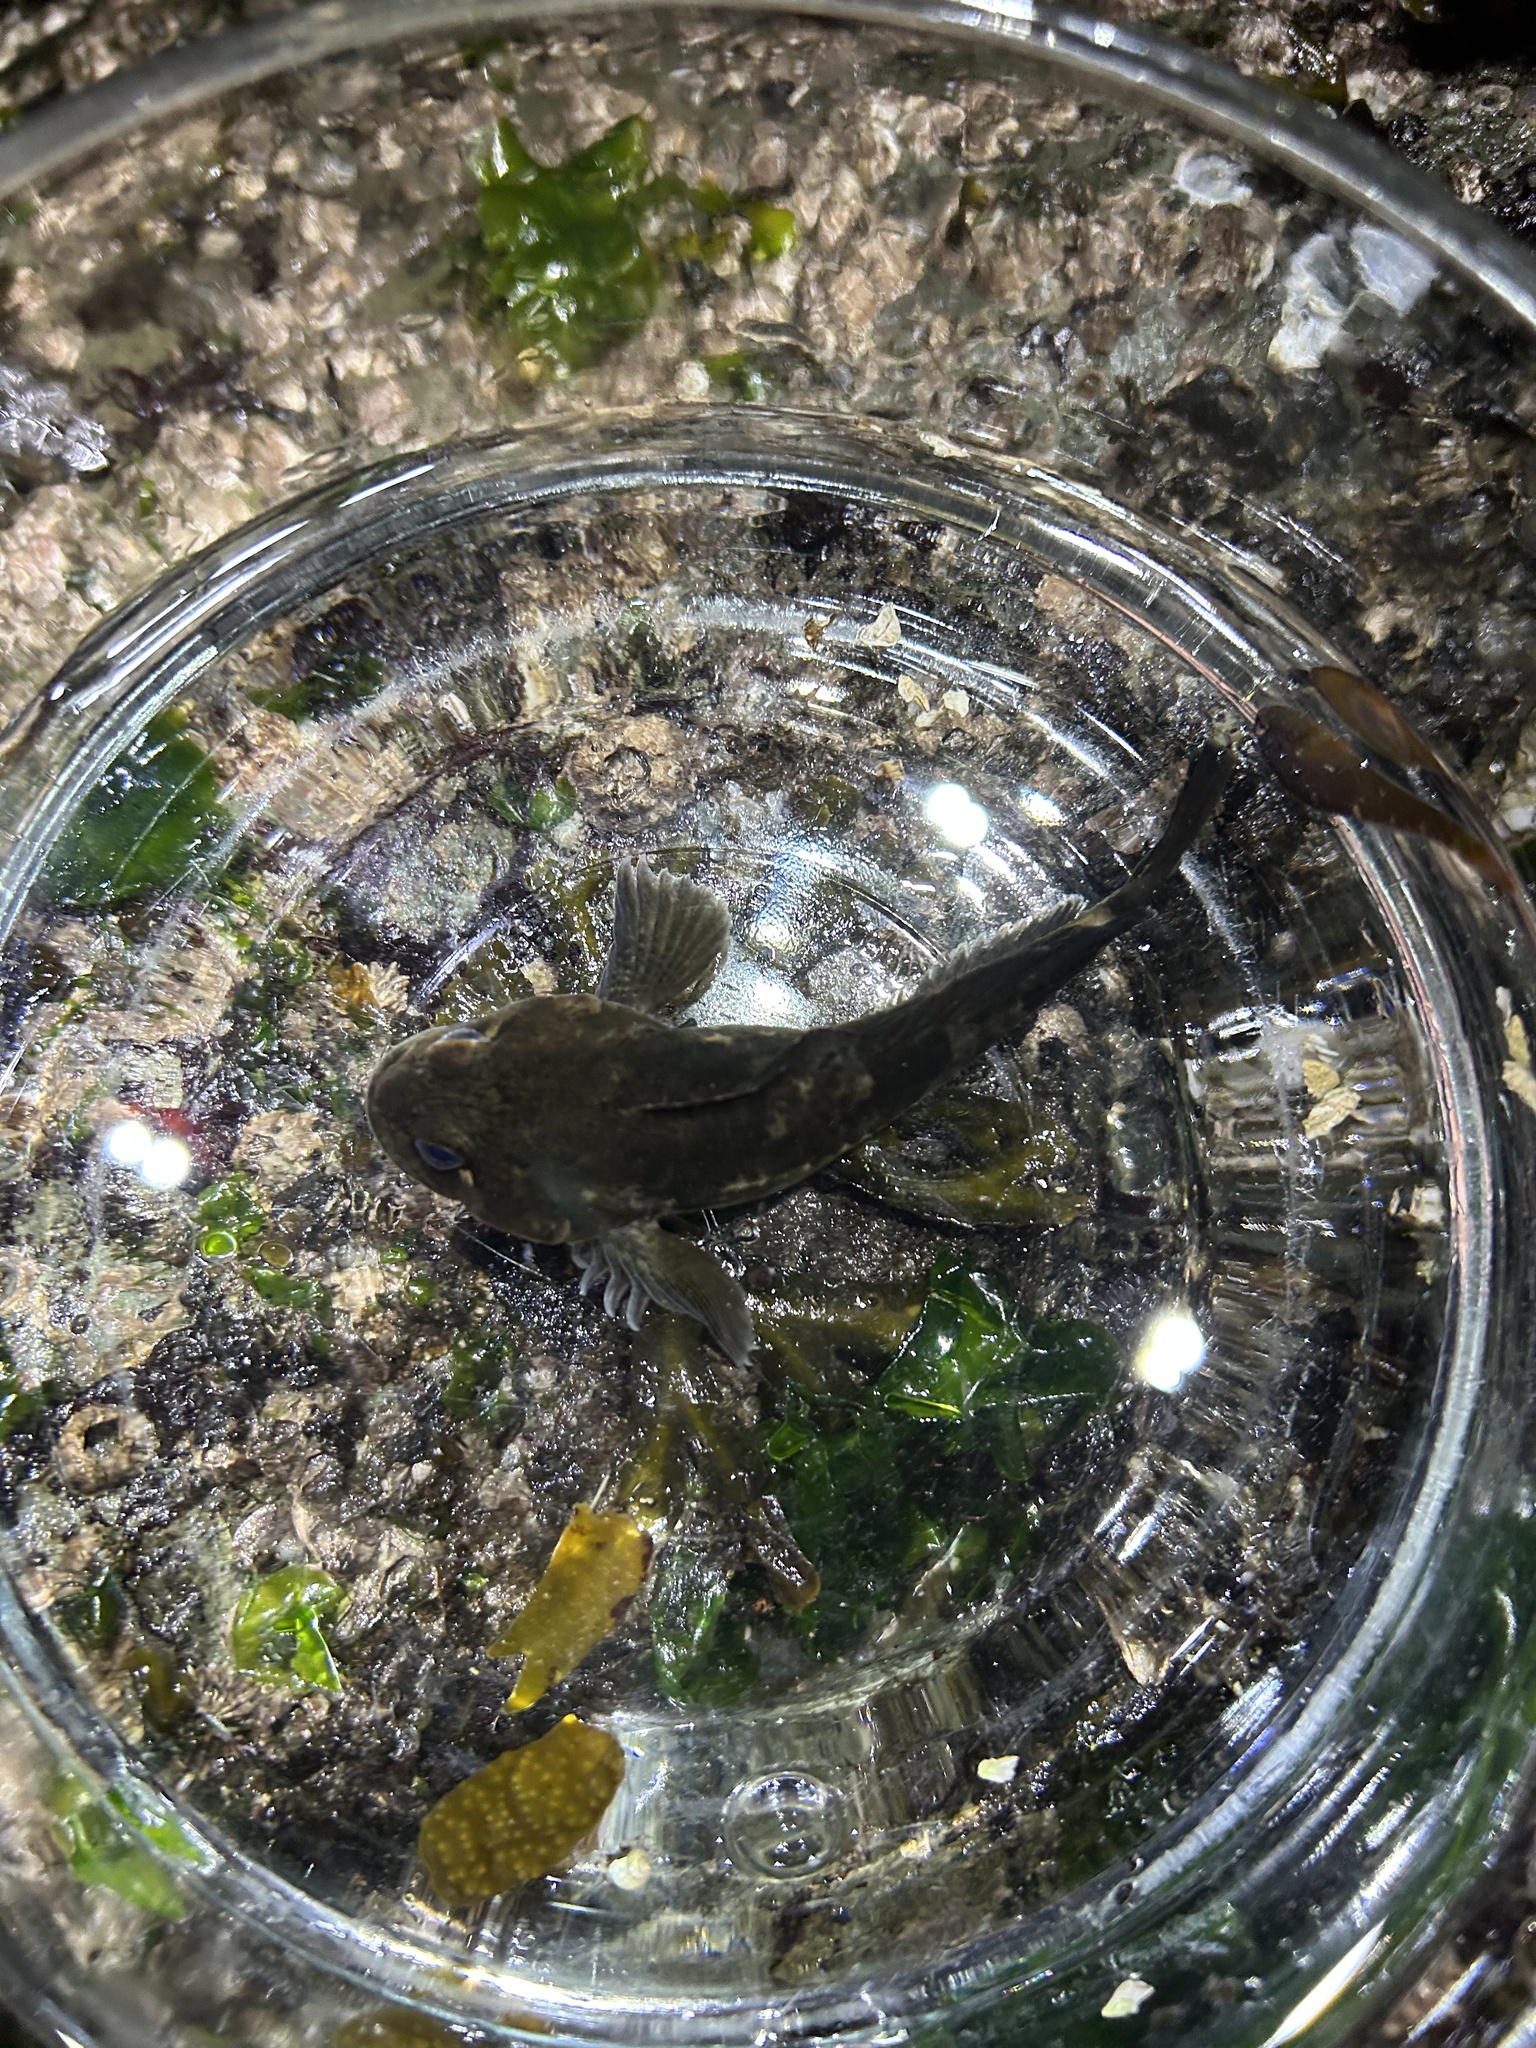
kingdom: Animalia
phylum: Chordata
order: Scorpaeniformes
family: Cottidae
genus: Ascelichthys
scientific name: Ascelichthys rhodorus
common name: Rosylip sculpin
